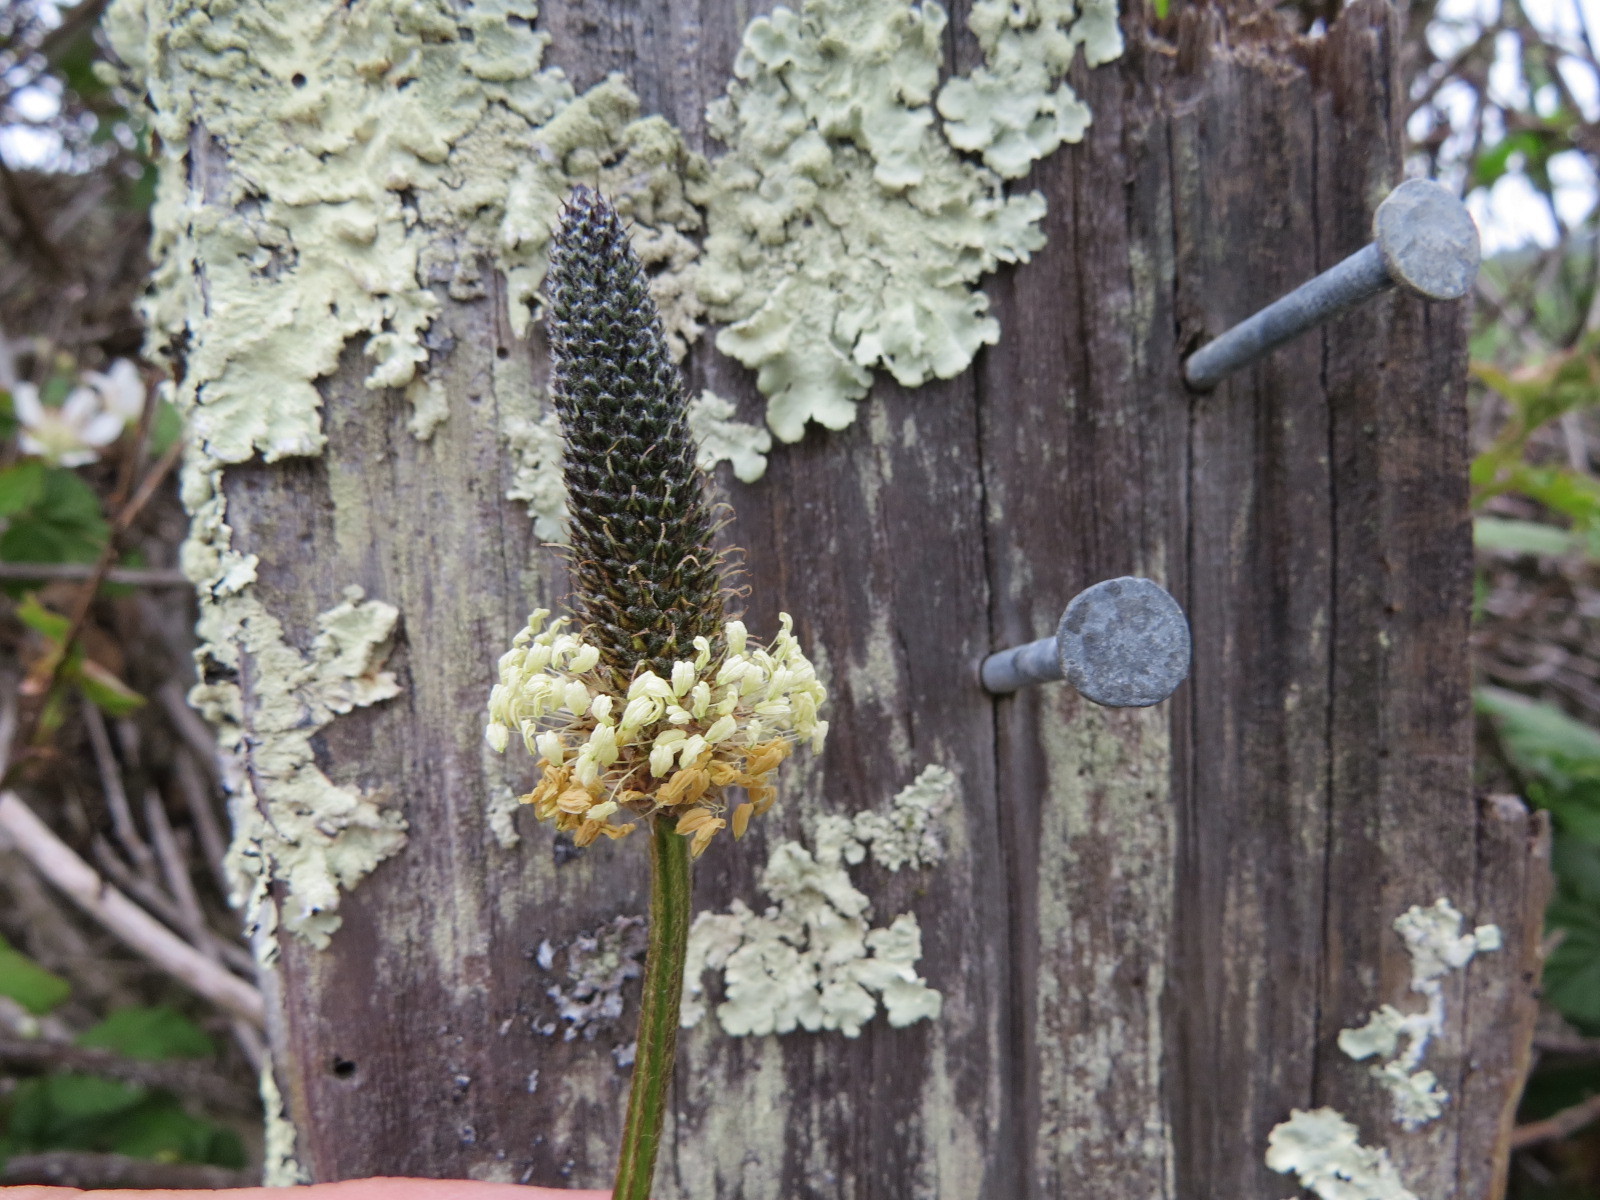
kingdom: Plantae
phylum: Tracheophyta
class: Magnoliopsida
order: Lamiales
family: Plantaginaceae
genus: Plantago
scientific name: Plantago lanceolata
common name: Ribwort plantain
